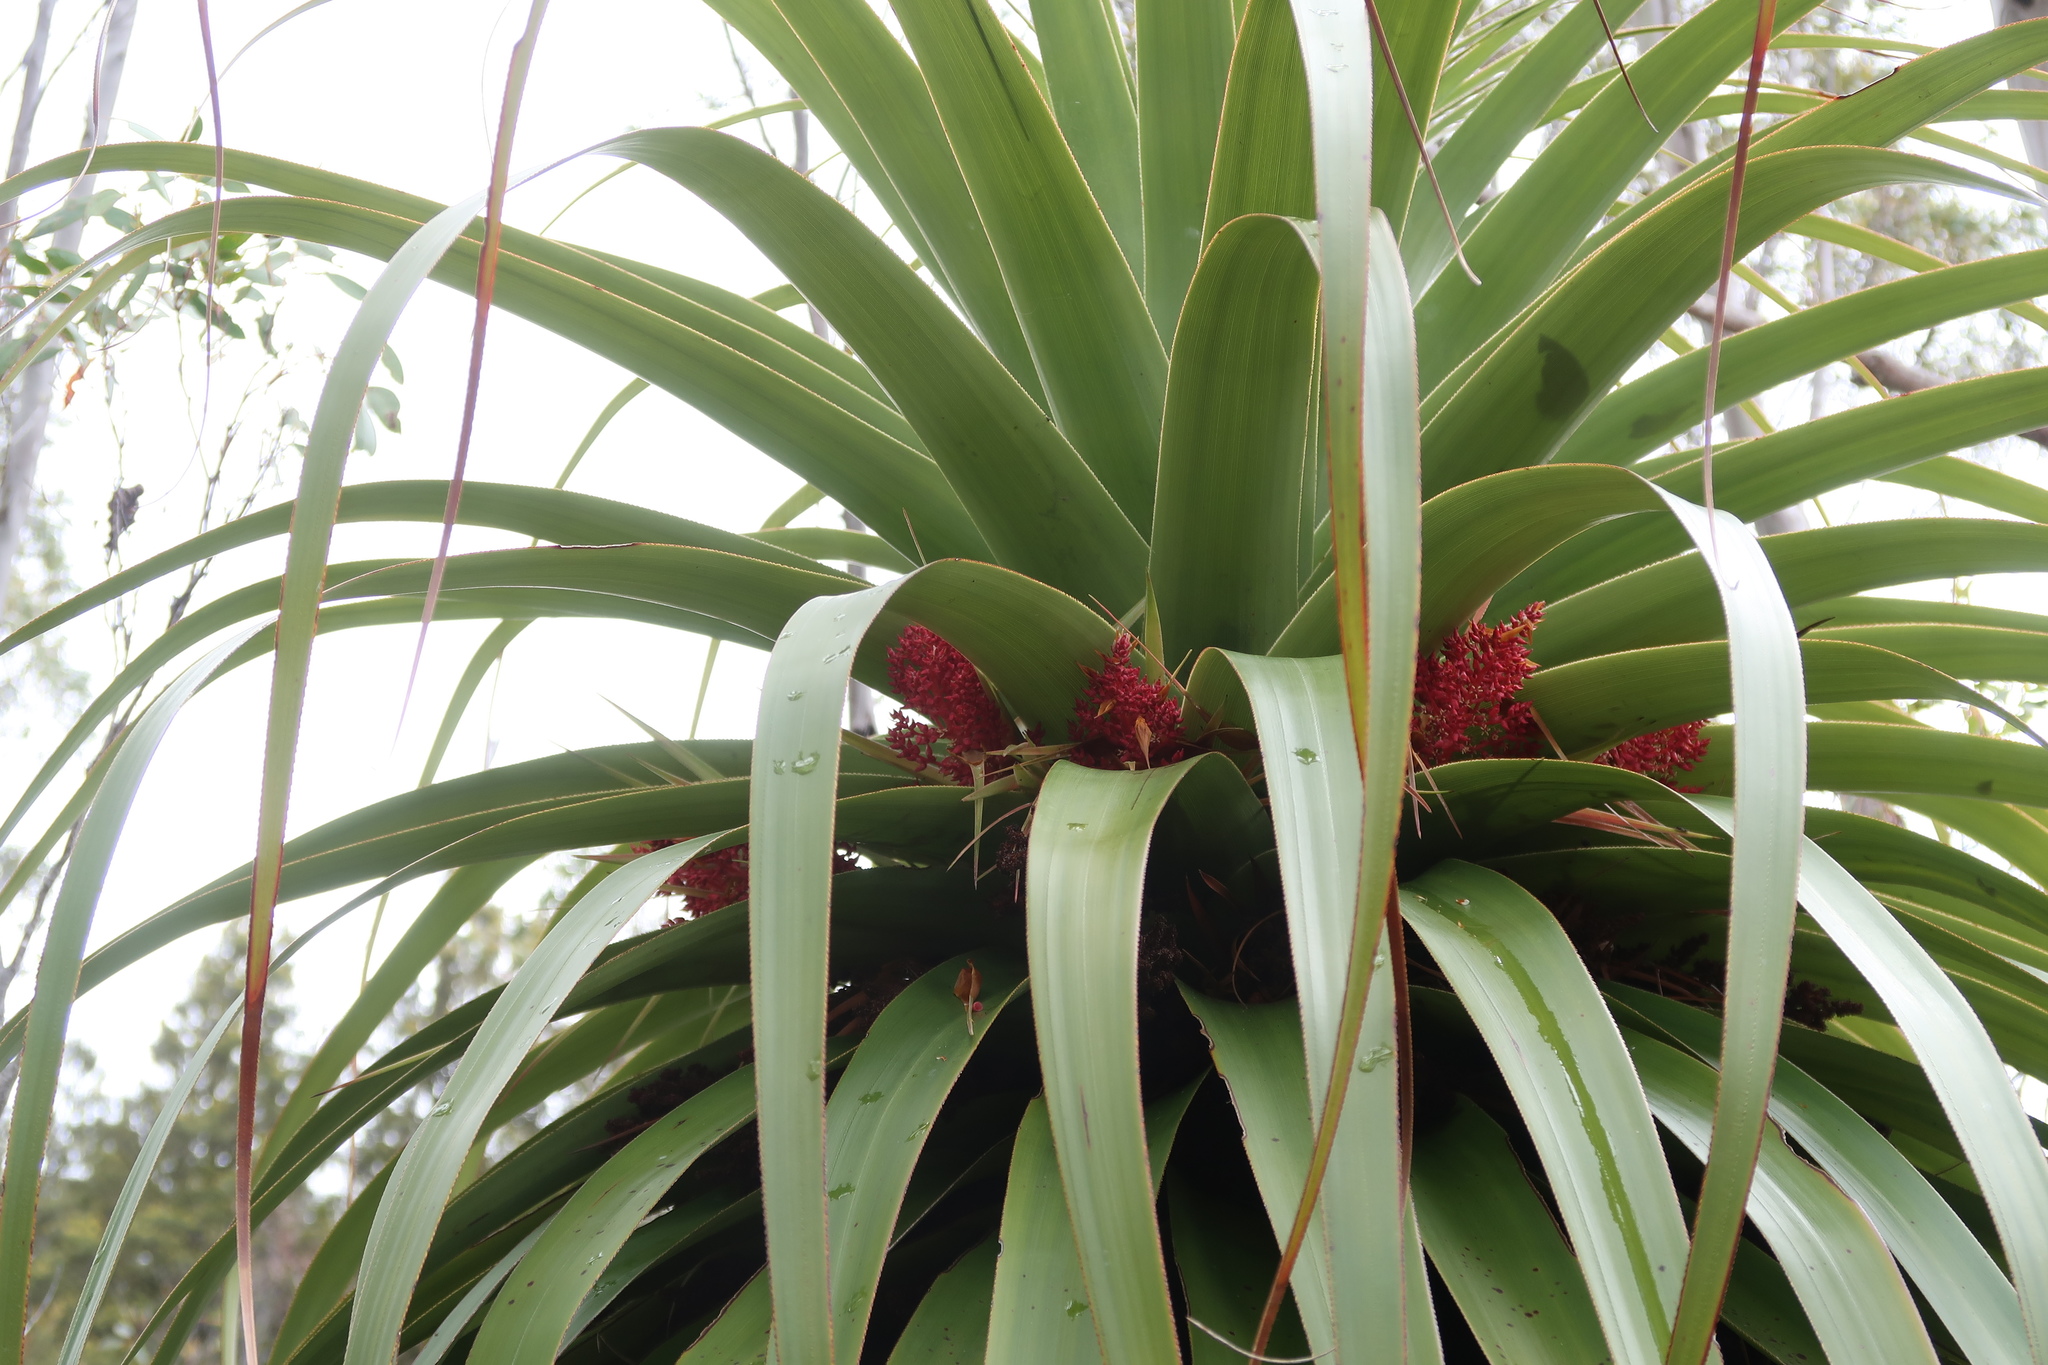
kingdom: Plantae
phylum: Tracheophyta
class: Magnoliopsida
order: Ericales
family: Ericaceae
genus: Dracophyllum
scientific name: Dracophyllum pandanifolium
